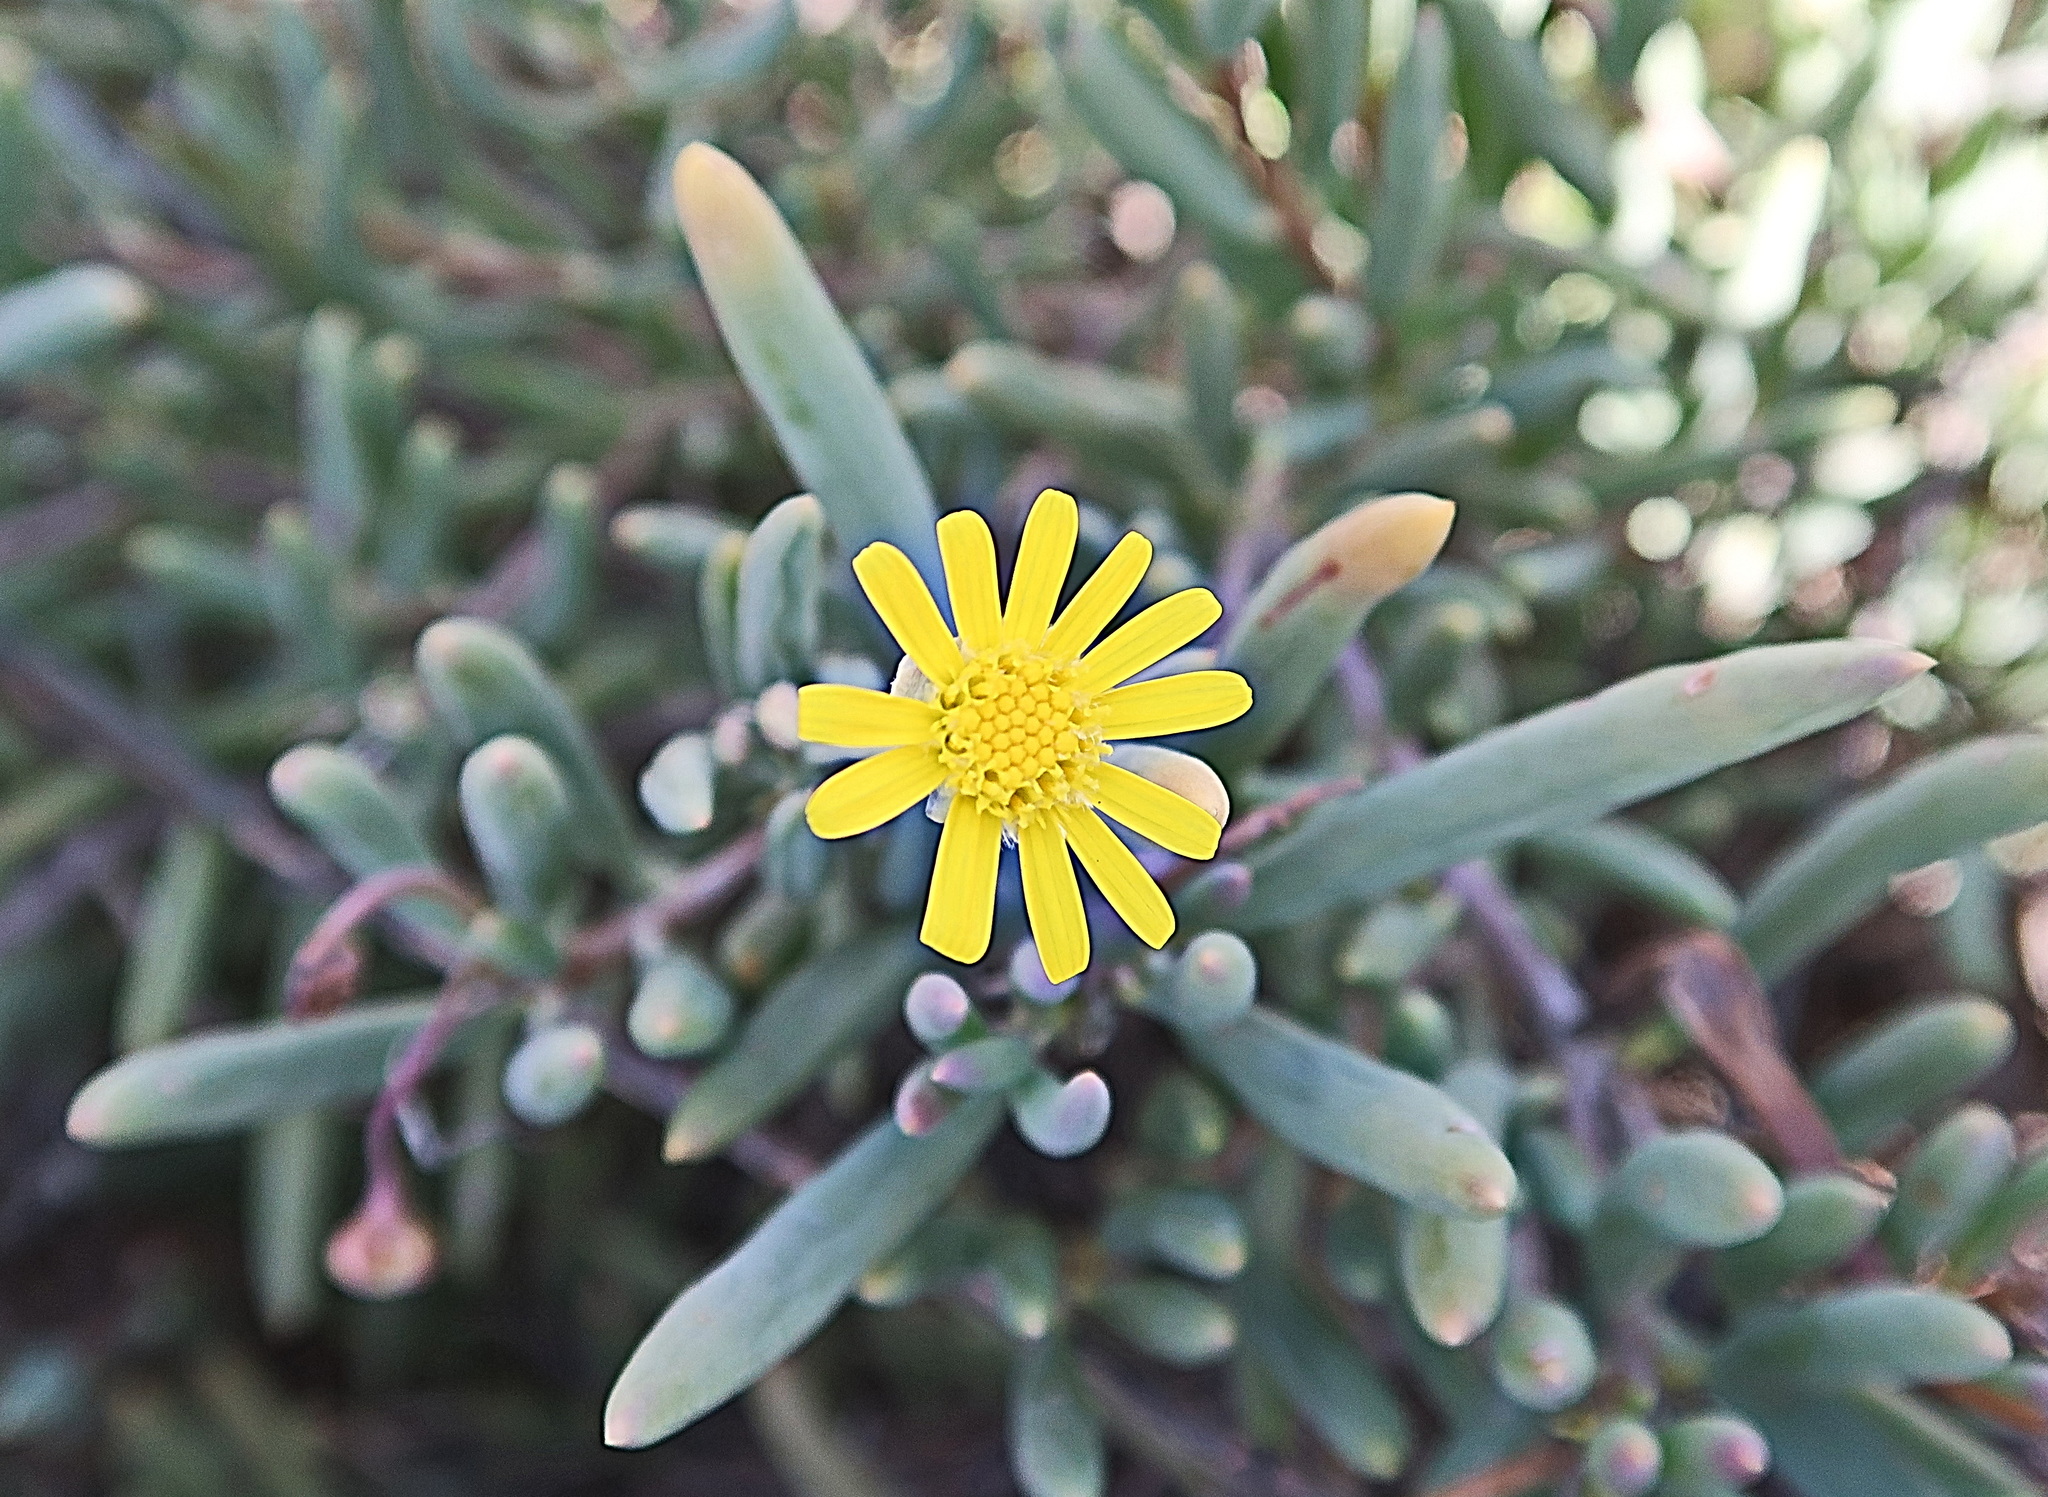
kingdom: Plantae
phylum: Tracheophyta
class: Magnoliopsida
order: Asterales
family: Asteraceae
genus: Crassothonna
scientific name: Crassothonna capensis
